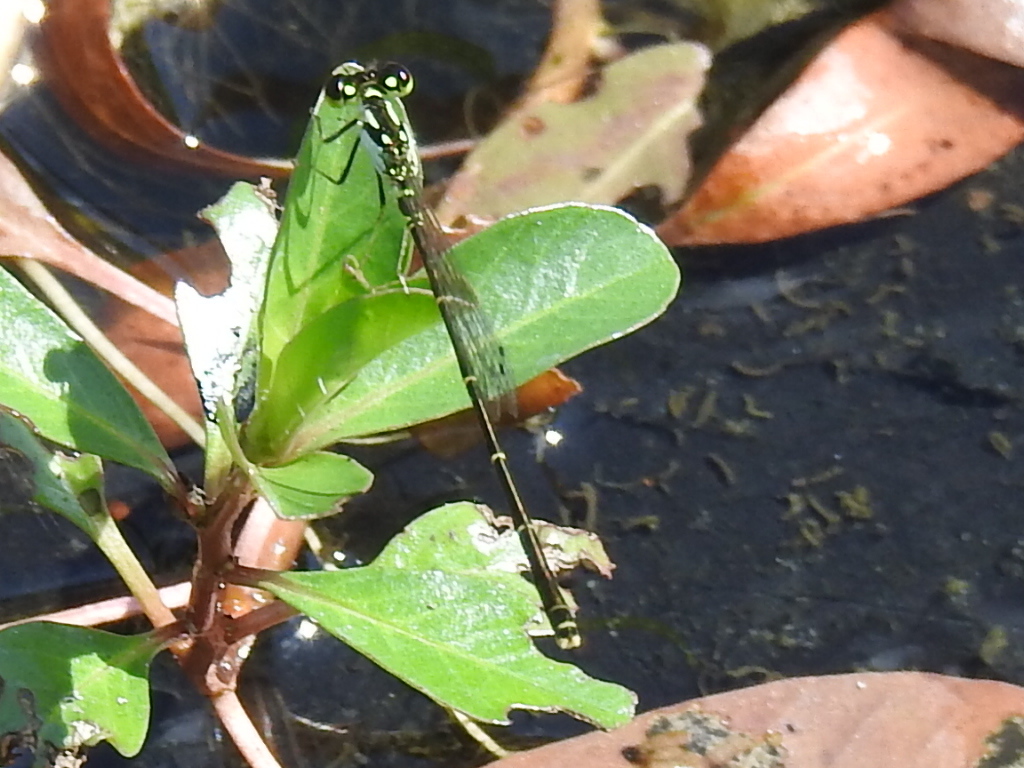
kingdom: Animalia
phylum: Arthropoda
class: Insecta
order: Odonata
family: Coenagrionidae
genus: Ischnura
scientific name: Ischnura posita
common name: Fragile forktail
